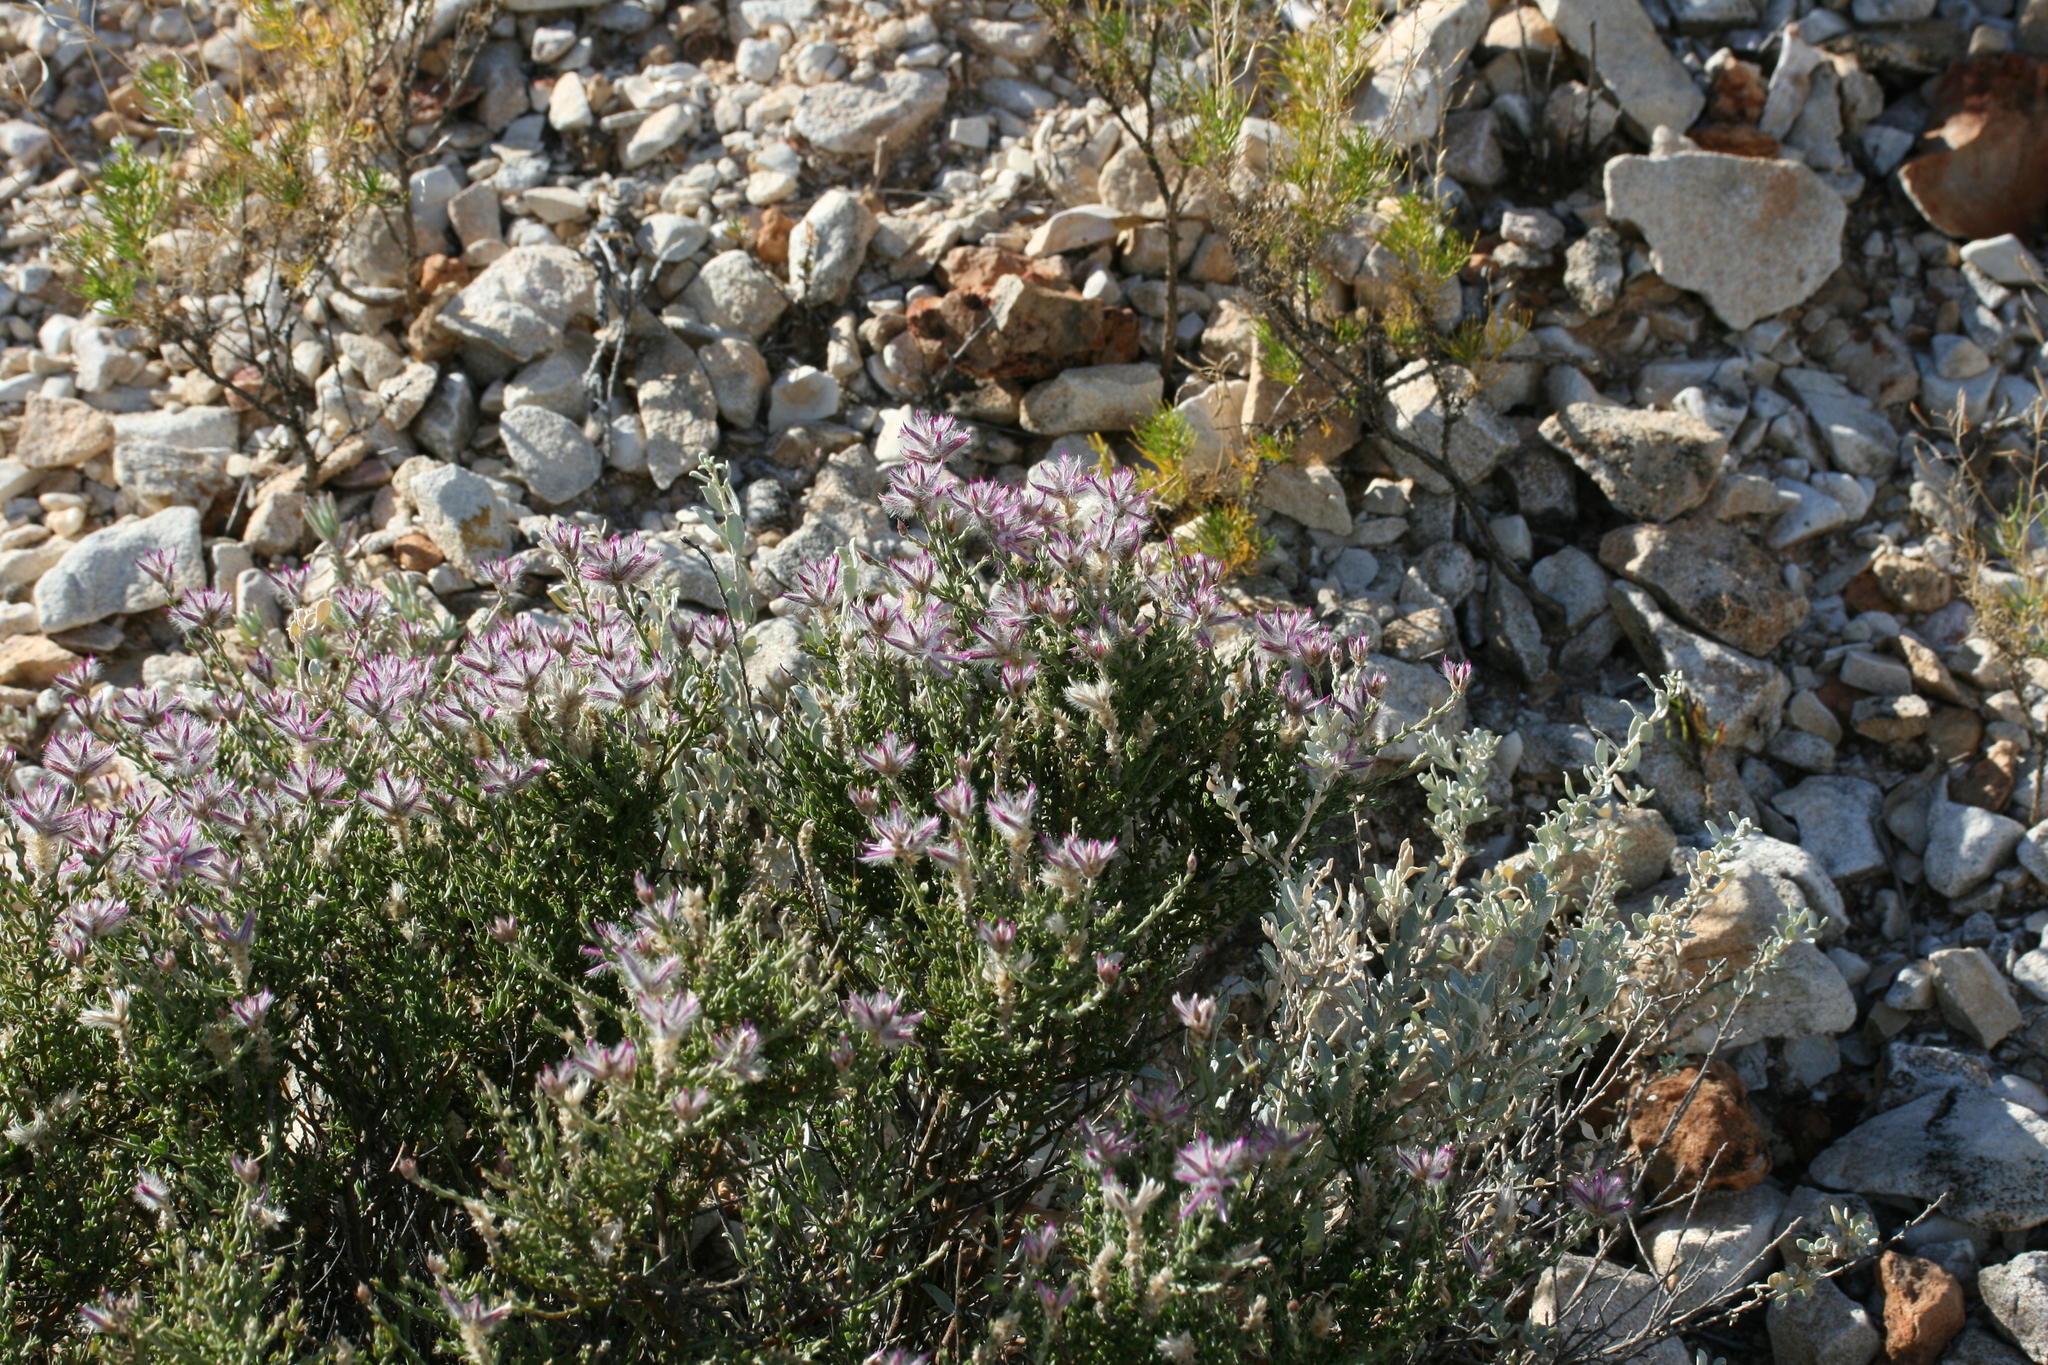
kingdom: Plantae
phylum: Tracheophyta
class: Magnoliopsida
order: Caryophyllales
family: Amaranthaceae
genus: Ptilotus
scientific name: Ptilotus remotiflorus
